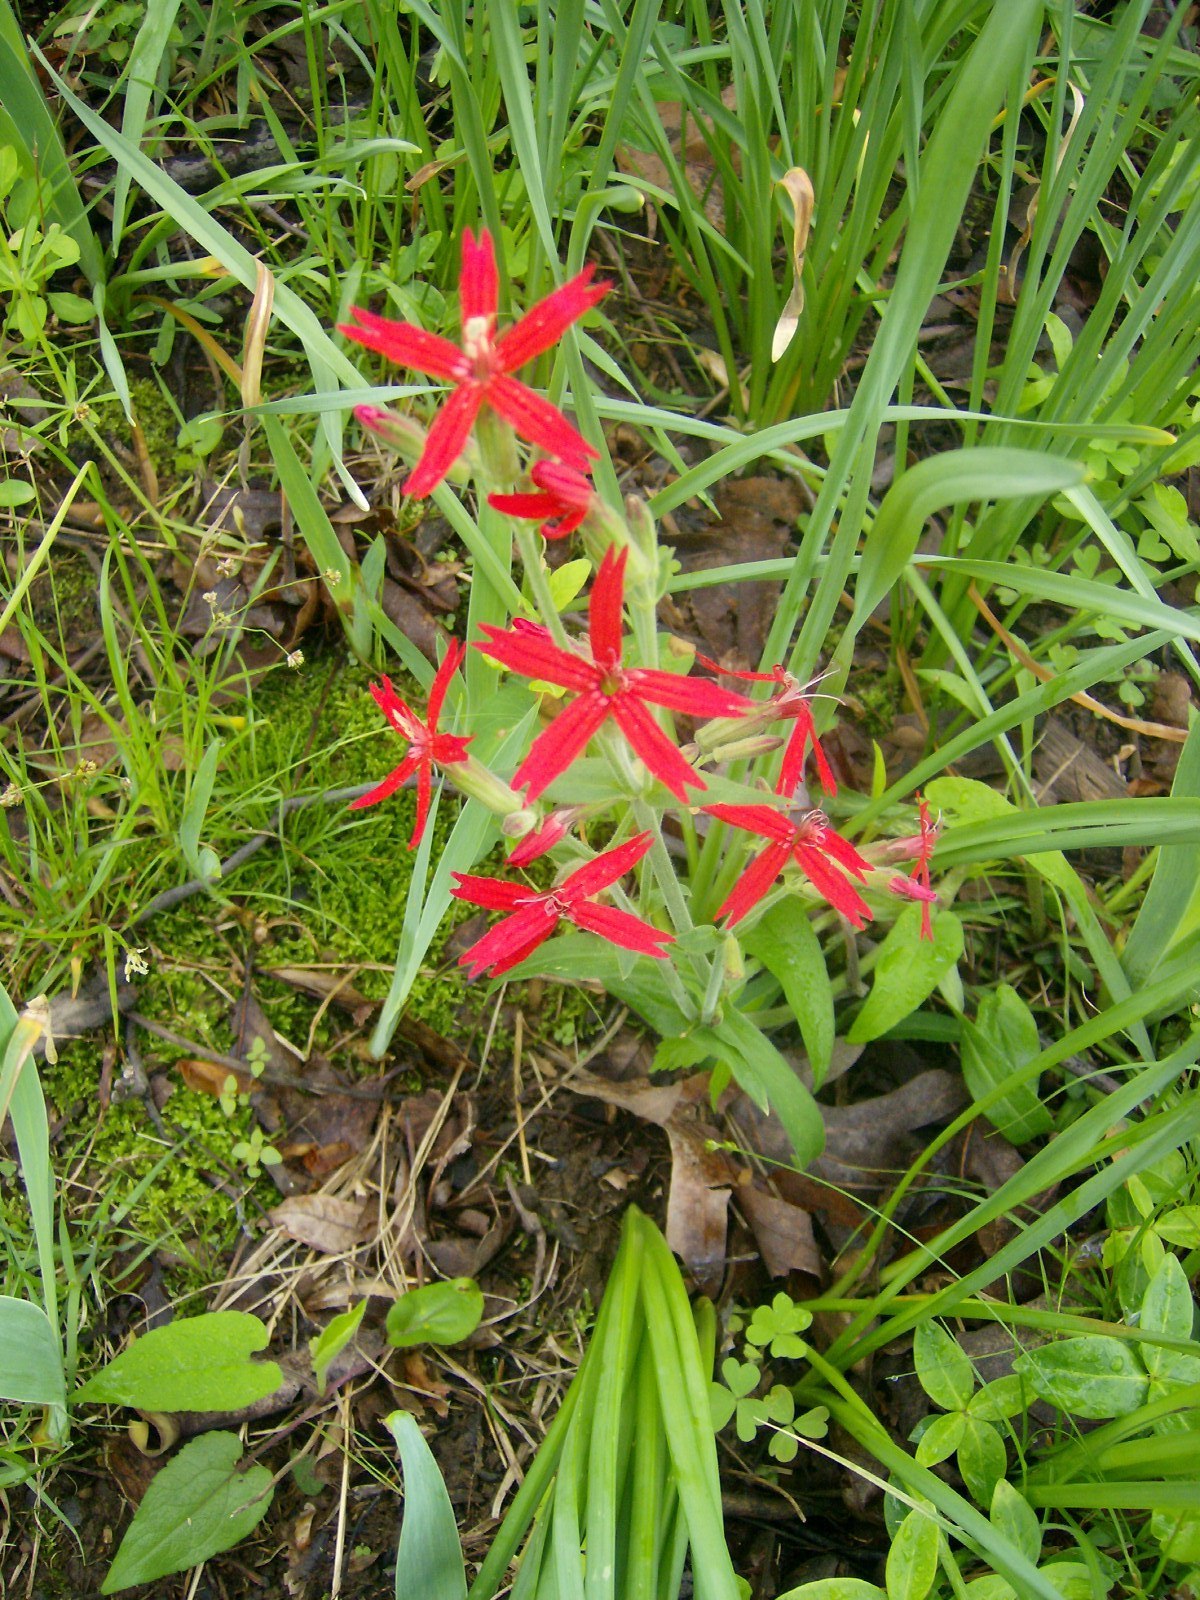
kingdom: Plantae
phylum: Tracheophyta
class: Magnoliopsida
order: Caryophyllales
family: Caryophyllaceae
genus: Silene
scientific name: Silene virginica
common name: Fire-pink
